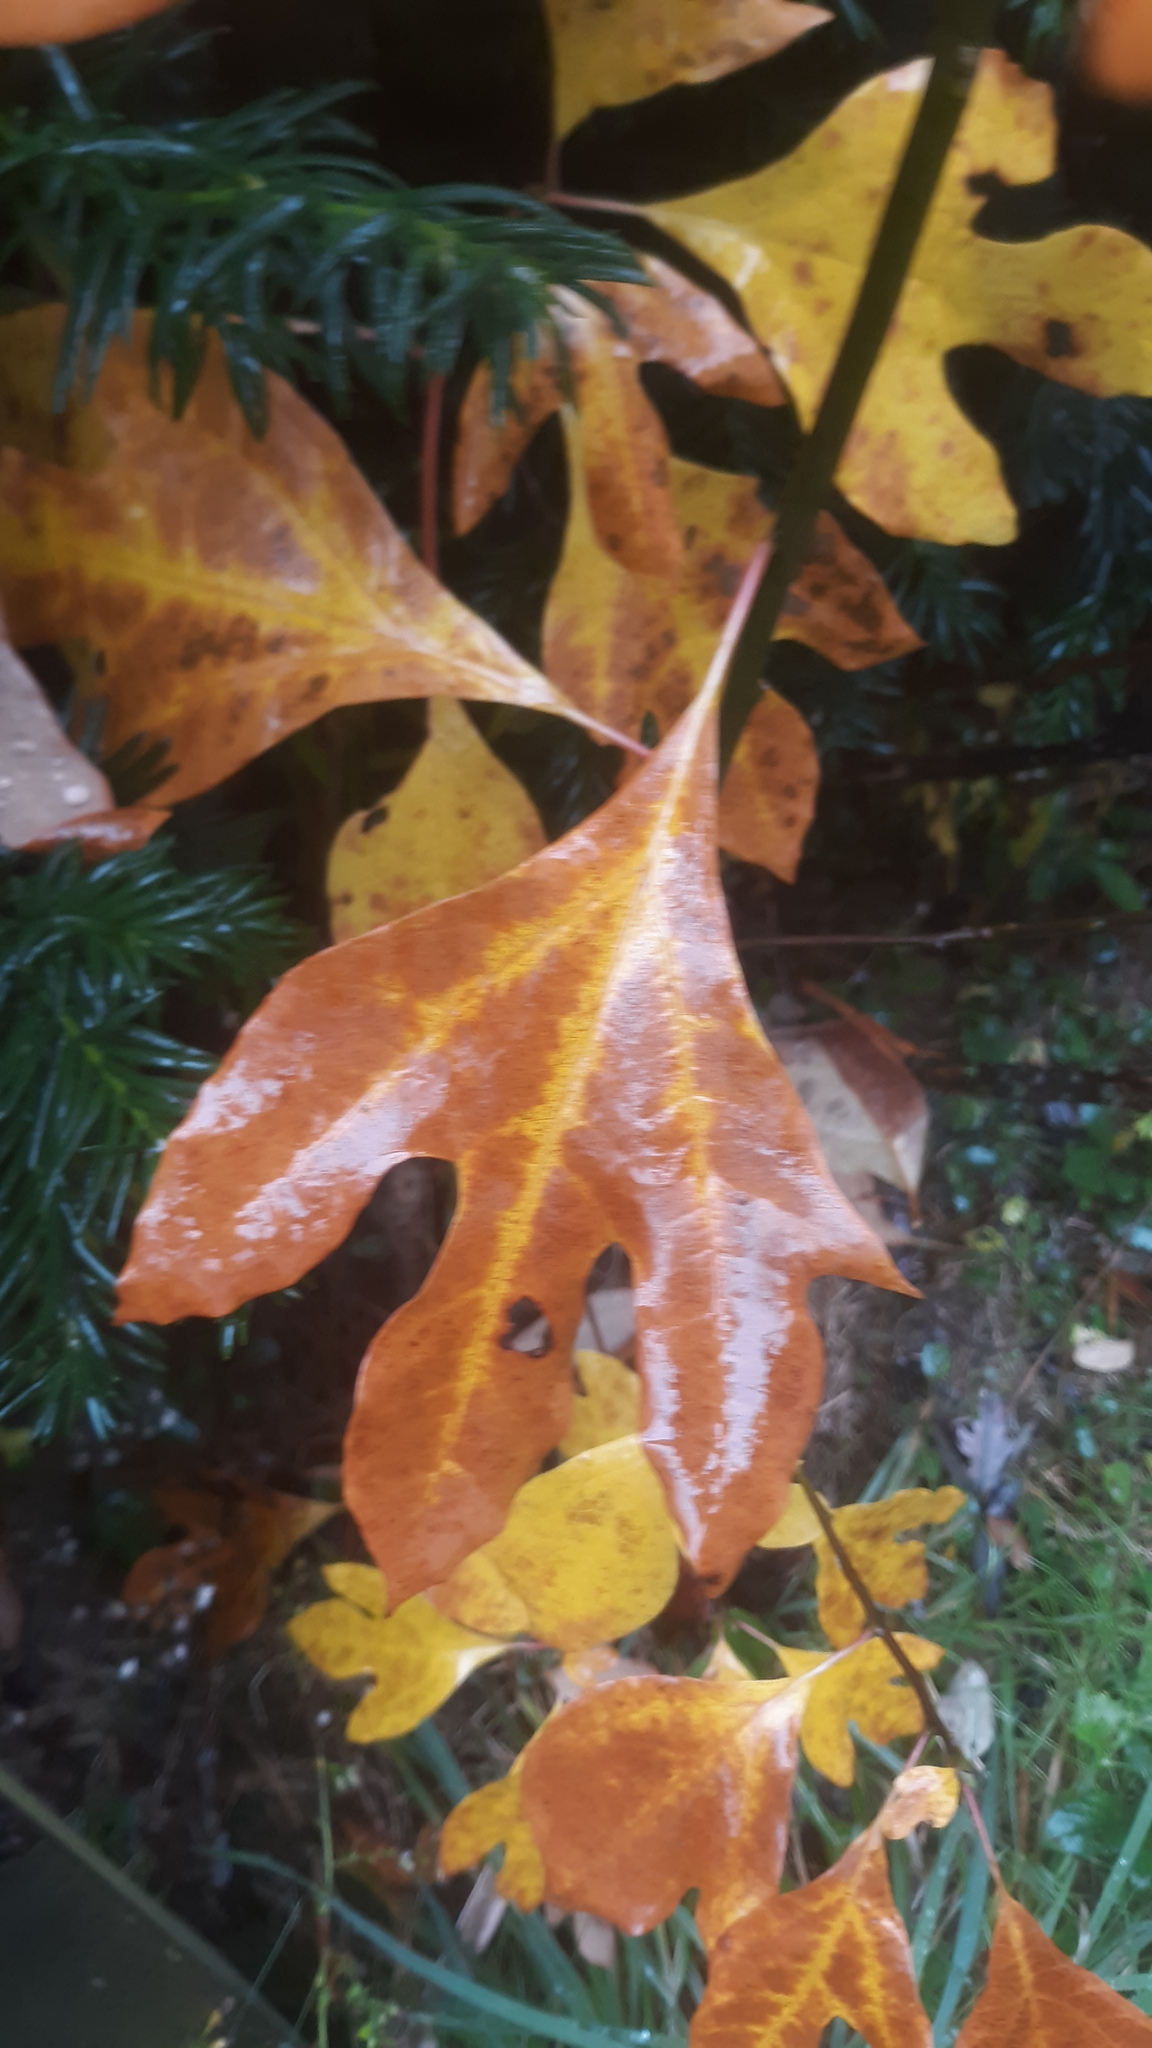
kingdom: Plantae
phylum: Tracheophyta
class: Magnoliopsida
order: Laurales
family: Lauraceae
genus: Sassafras
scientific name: Sassafras albidum
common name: Sassafras
